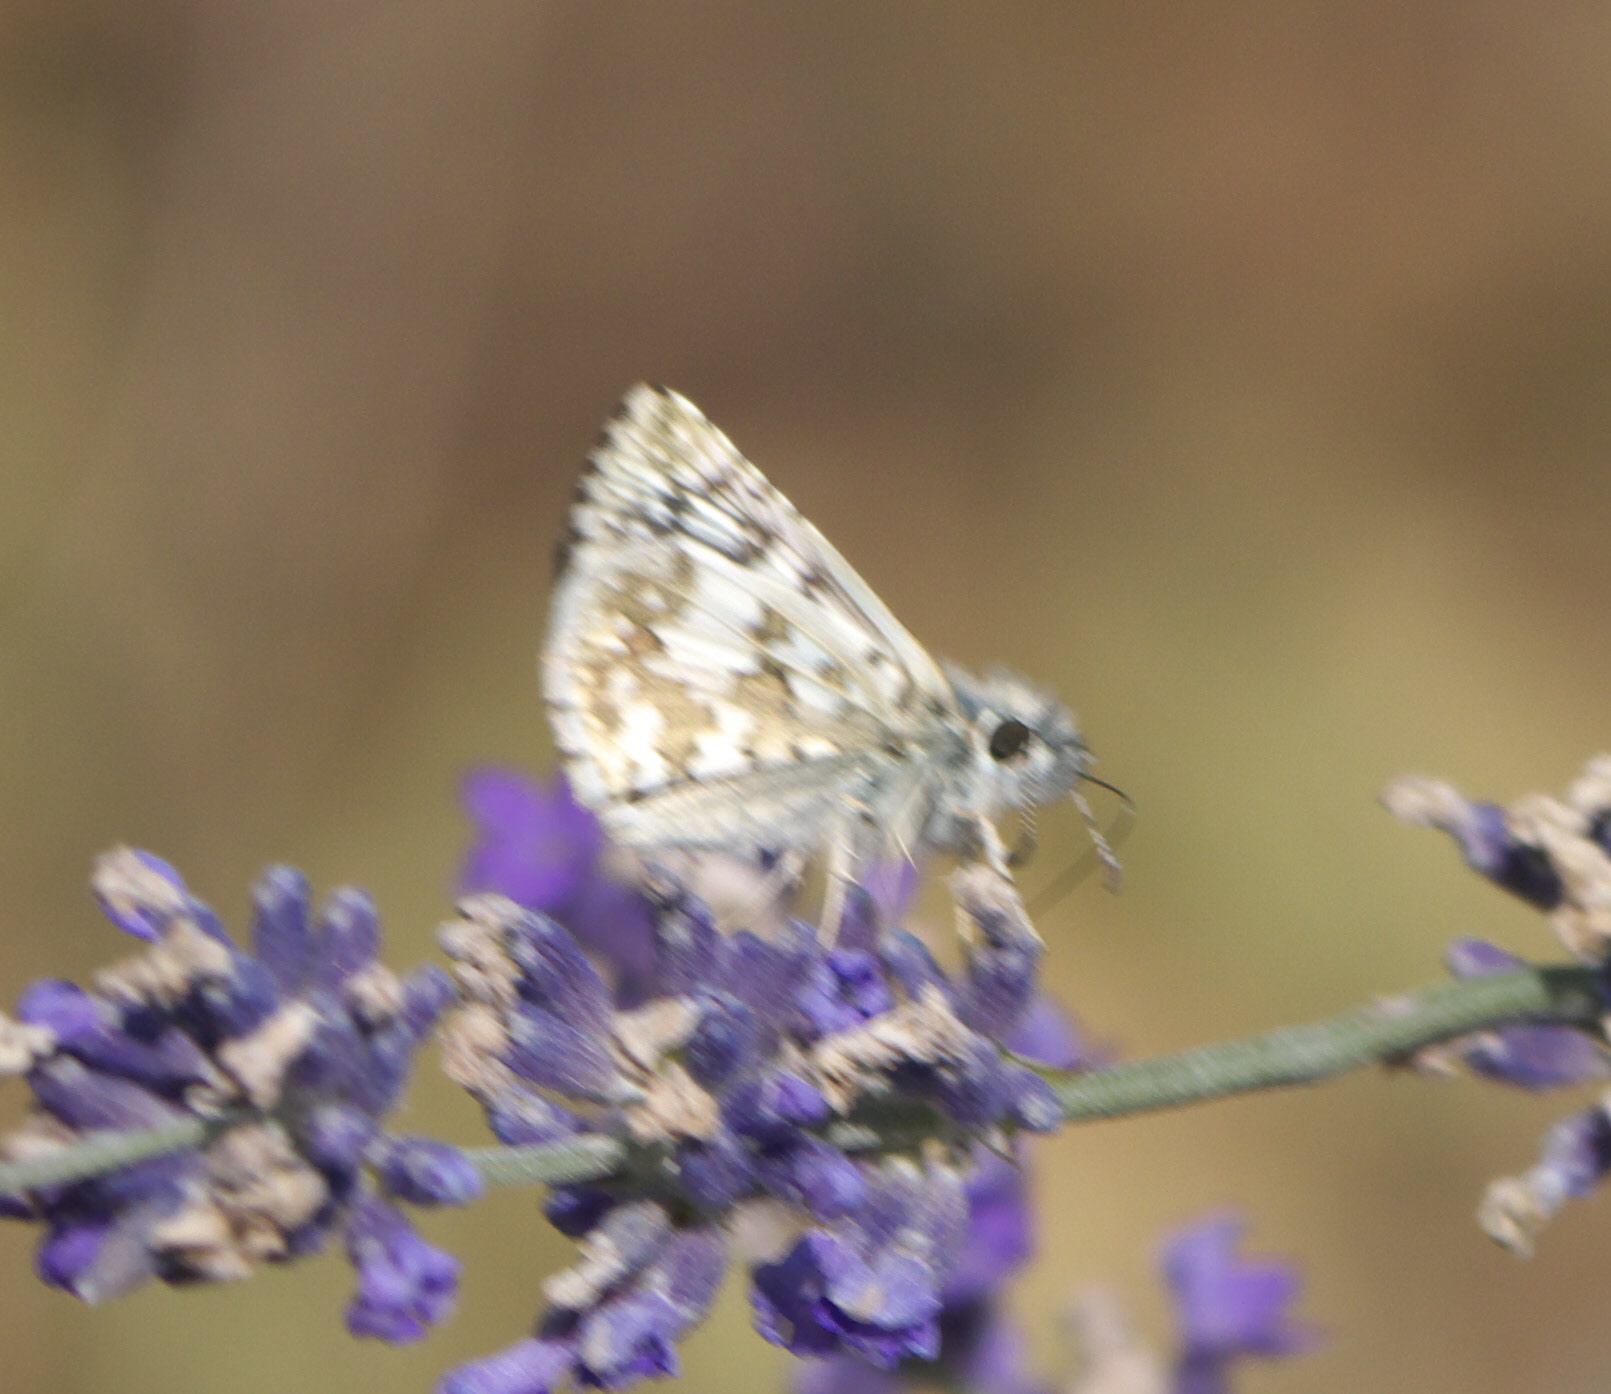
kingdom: Animalia
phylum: Arthropoda
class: Insecta
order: Lepidoptera
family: Hesperiidae
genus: Burnsius
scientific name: Burnsius communis
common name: Common checkered-skipper
